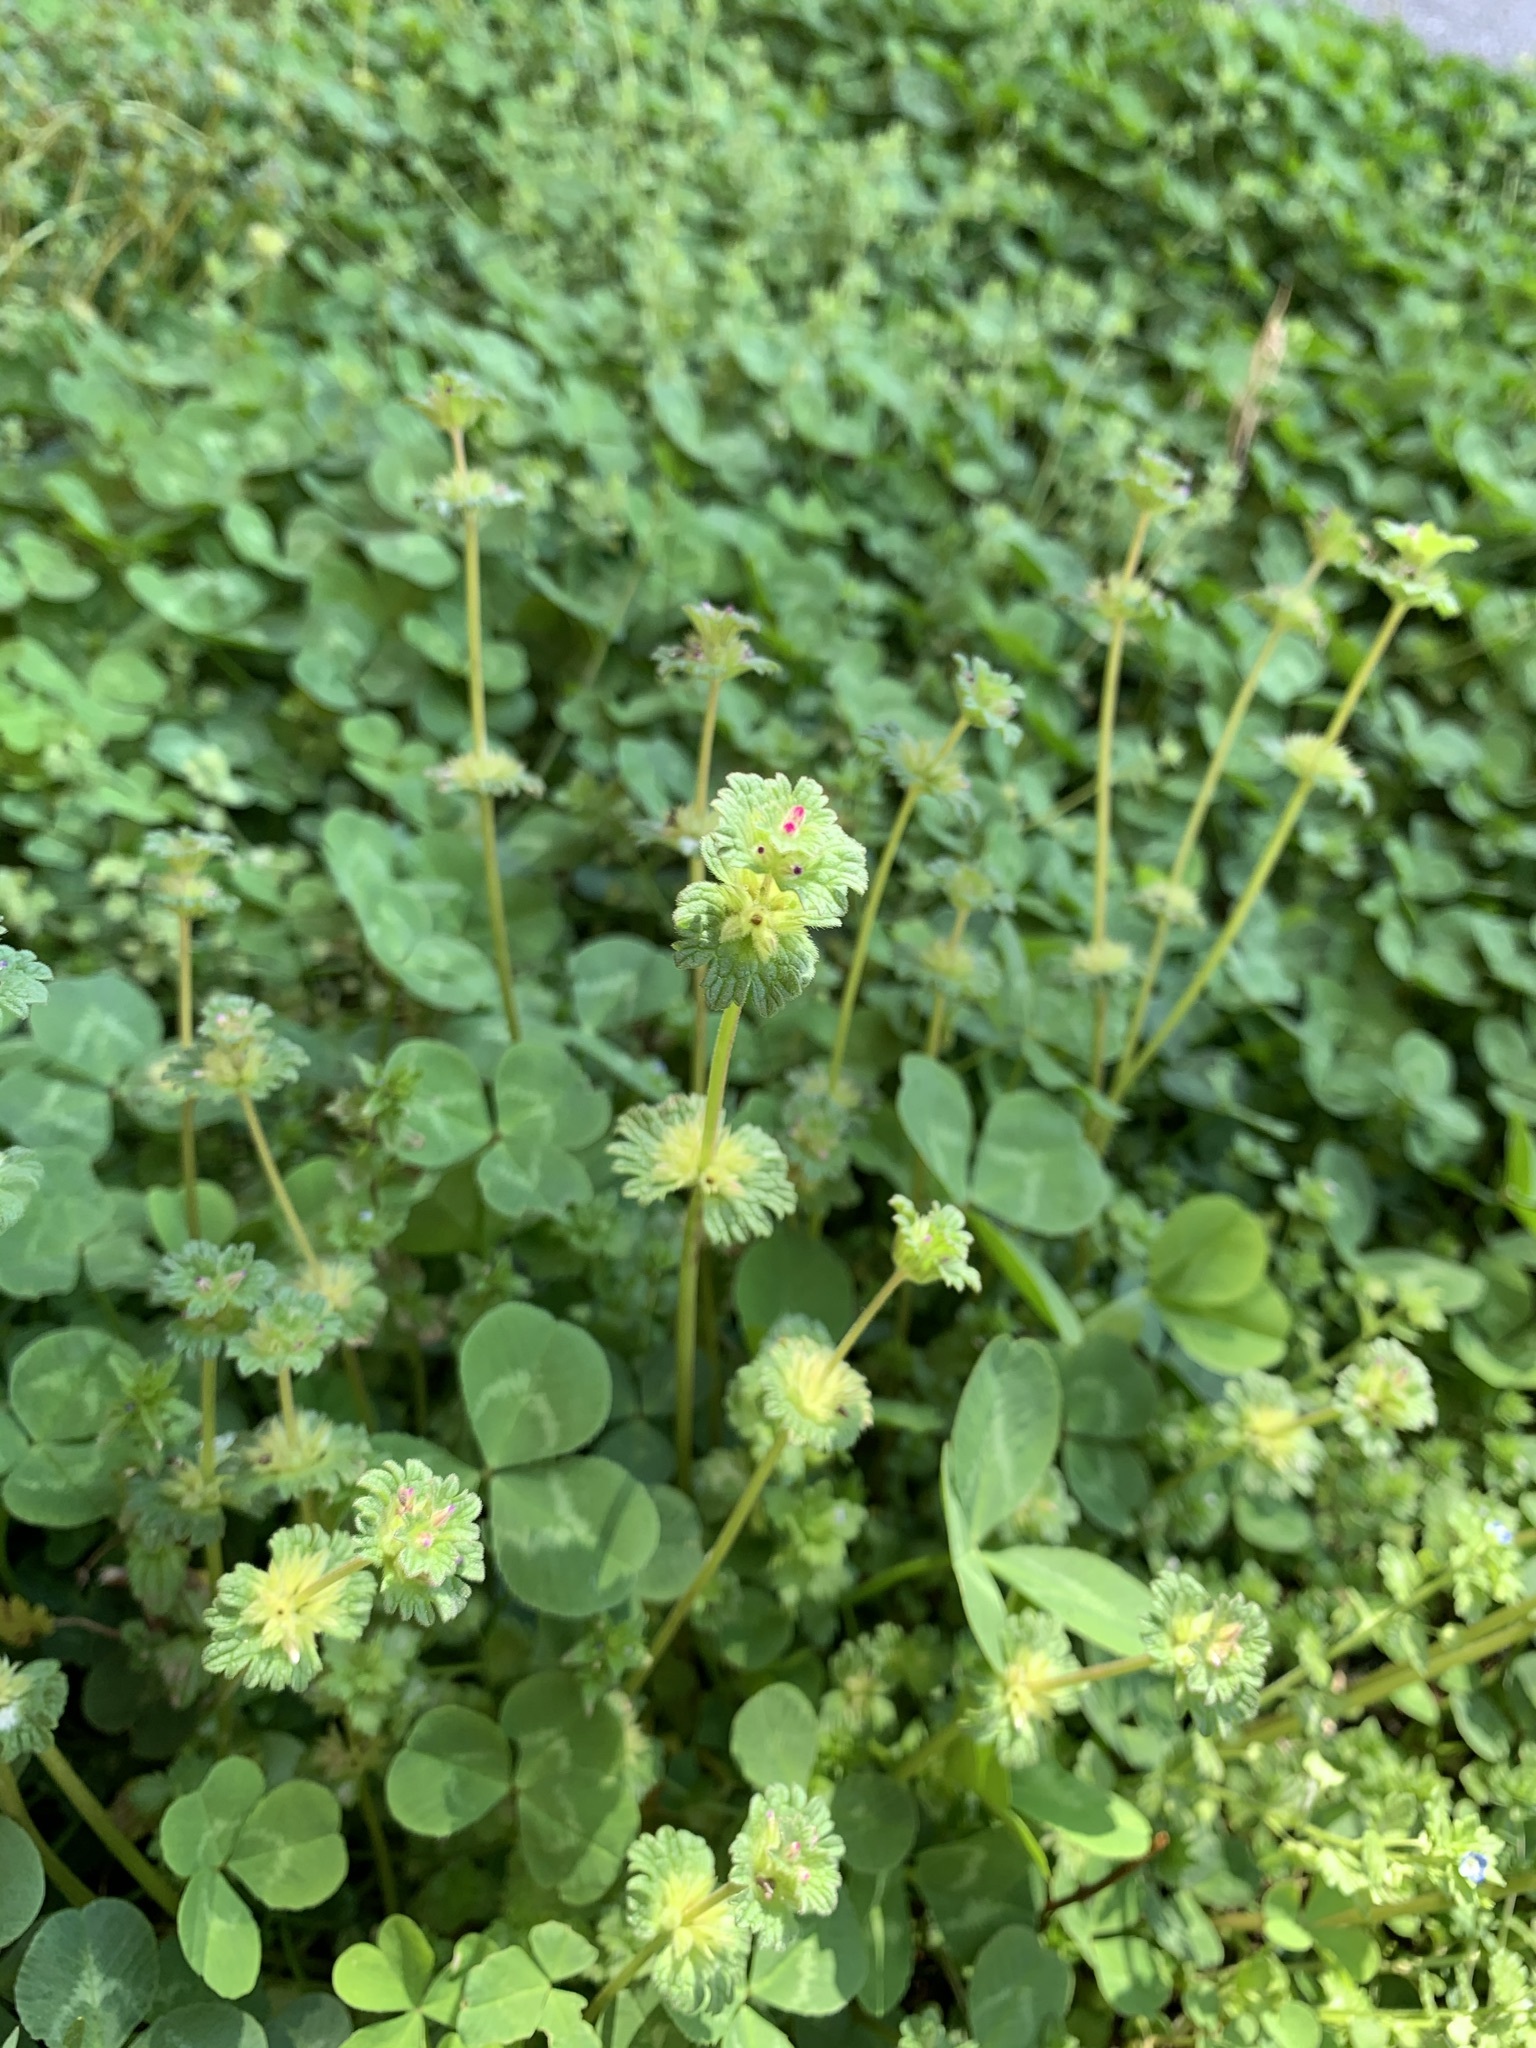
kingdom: Plantae
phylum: Tracheophyta
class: Magnoliopsida
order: Lamiales
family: Lamiaceae
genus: Lamium
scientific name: Lamium amplexicaule
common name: Henbit dead-nettle
